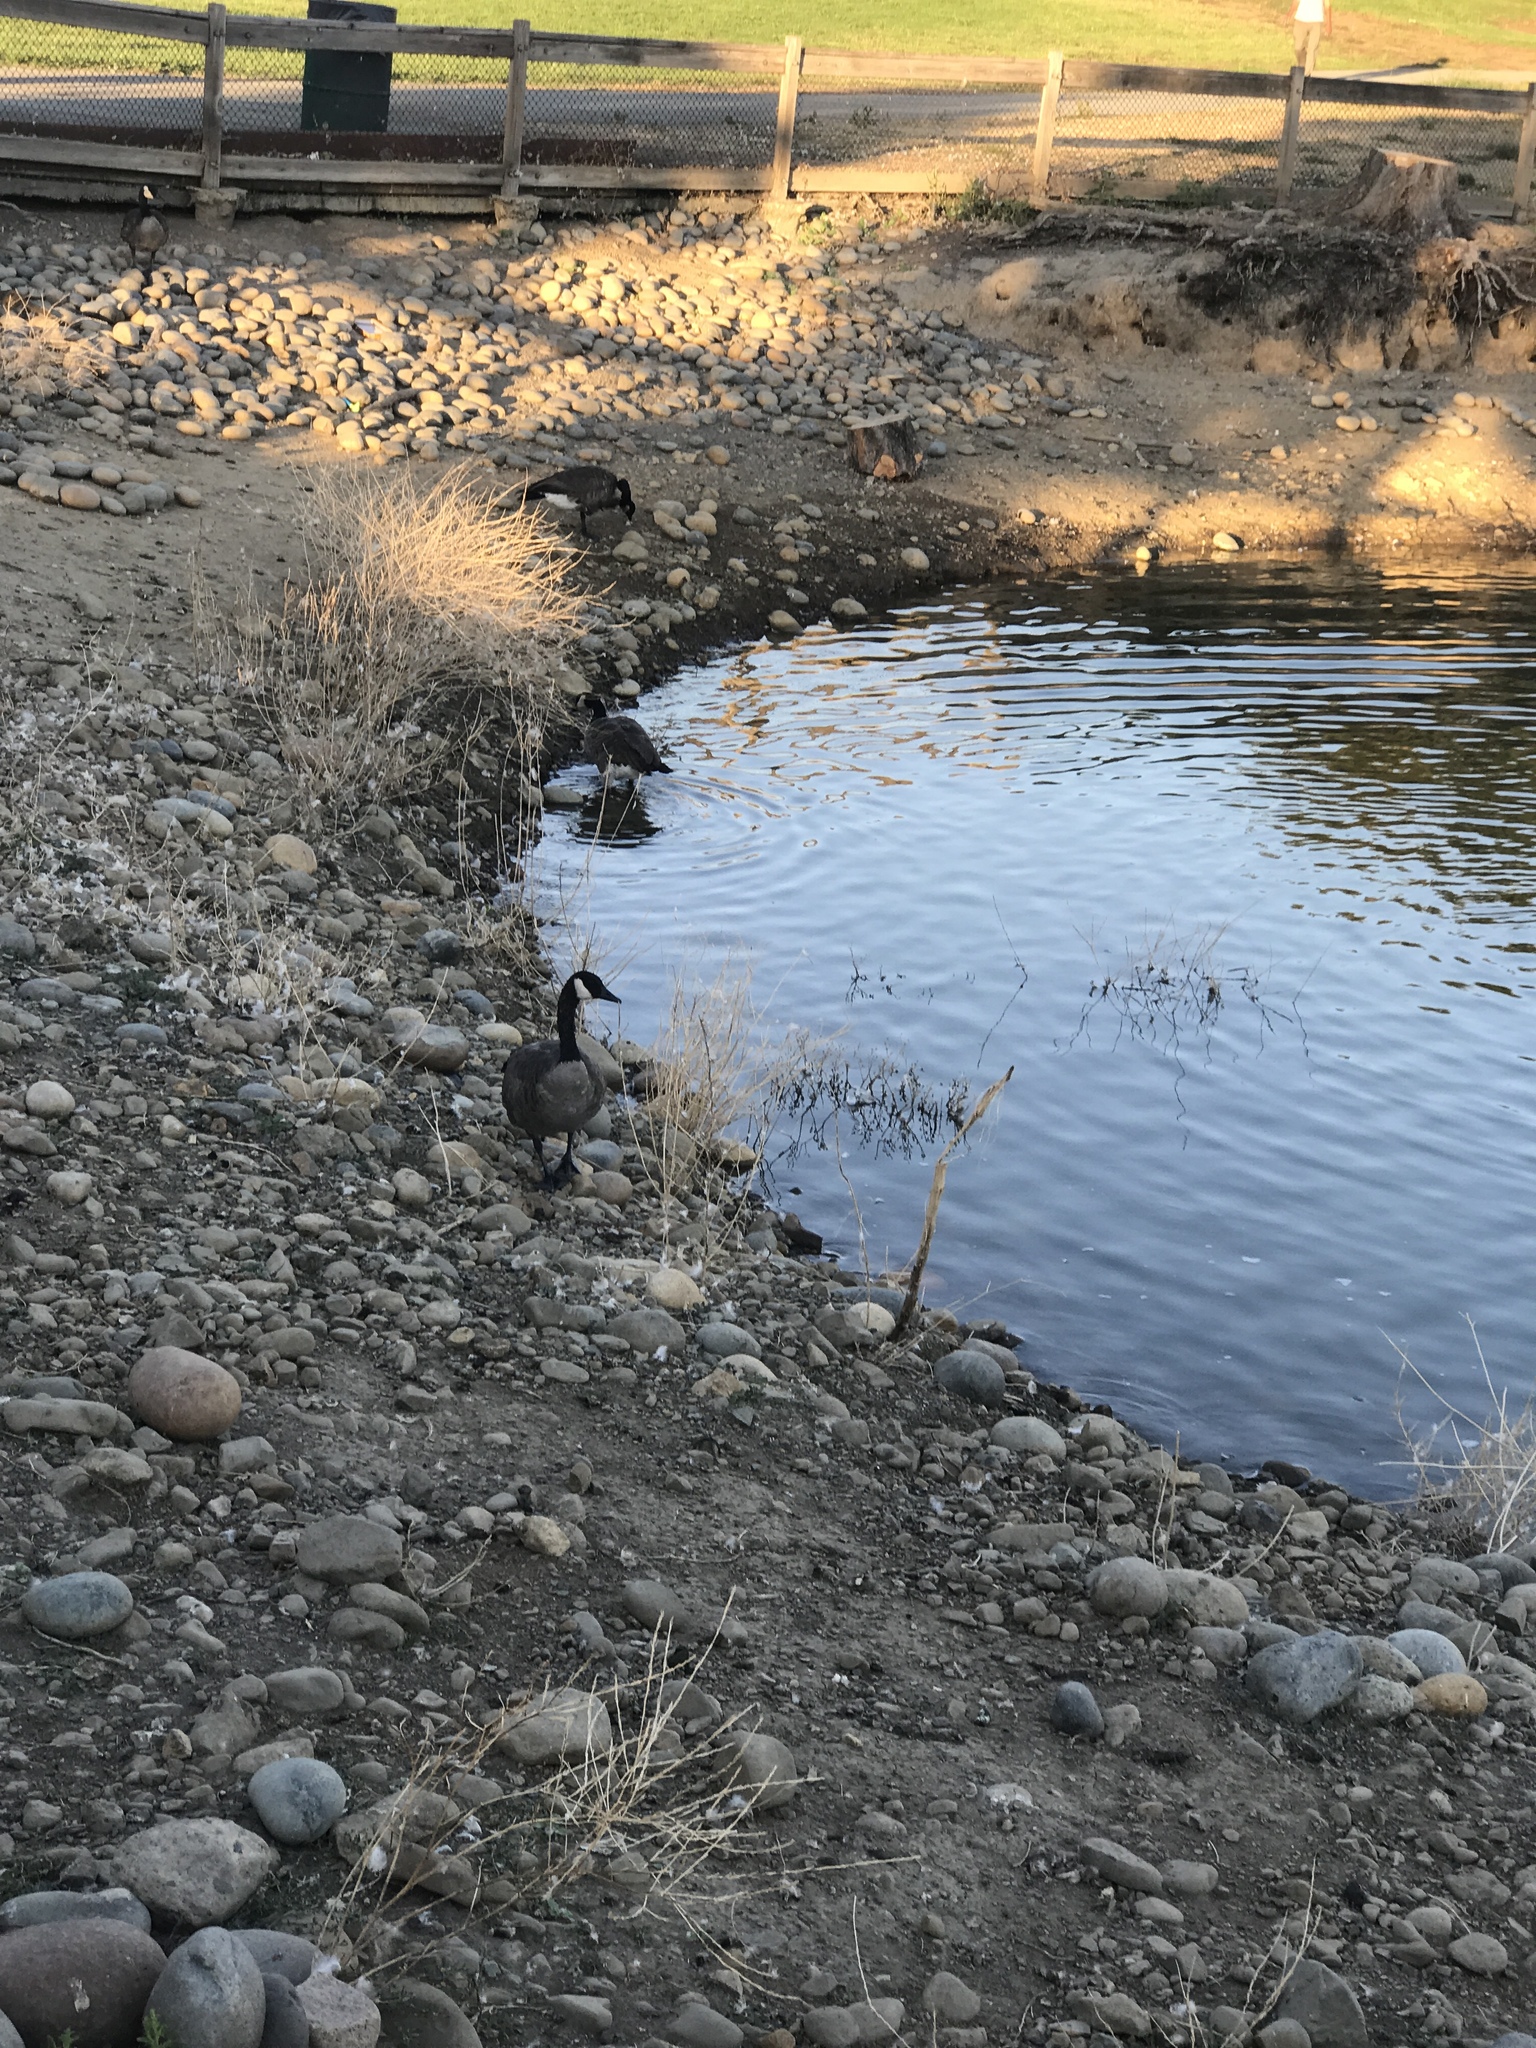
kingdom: Animalia
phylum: Chordata
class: Aves
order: Anseriformes
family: Anatidae
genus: Branta
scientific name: Branta canadensis
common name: Canada goose
